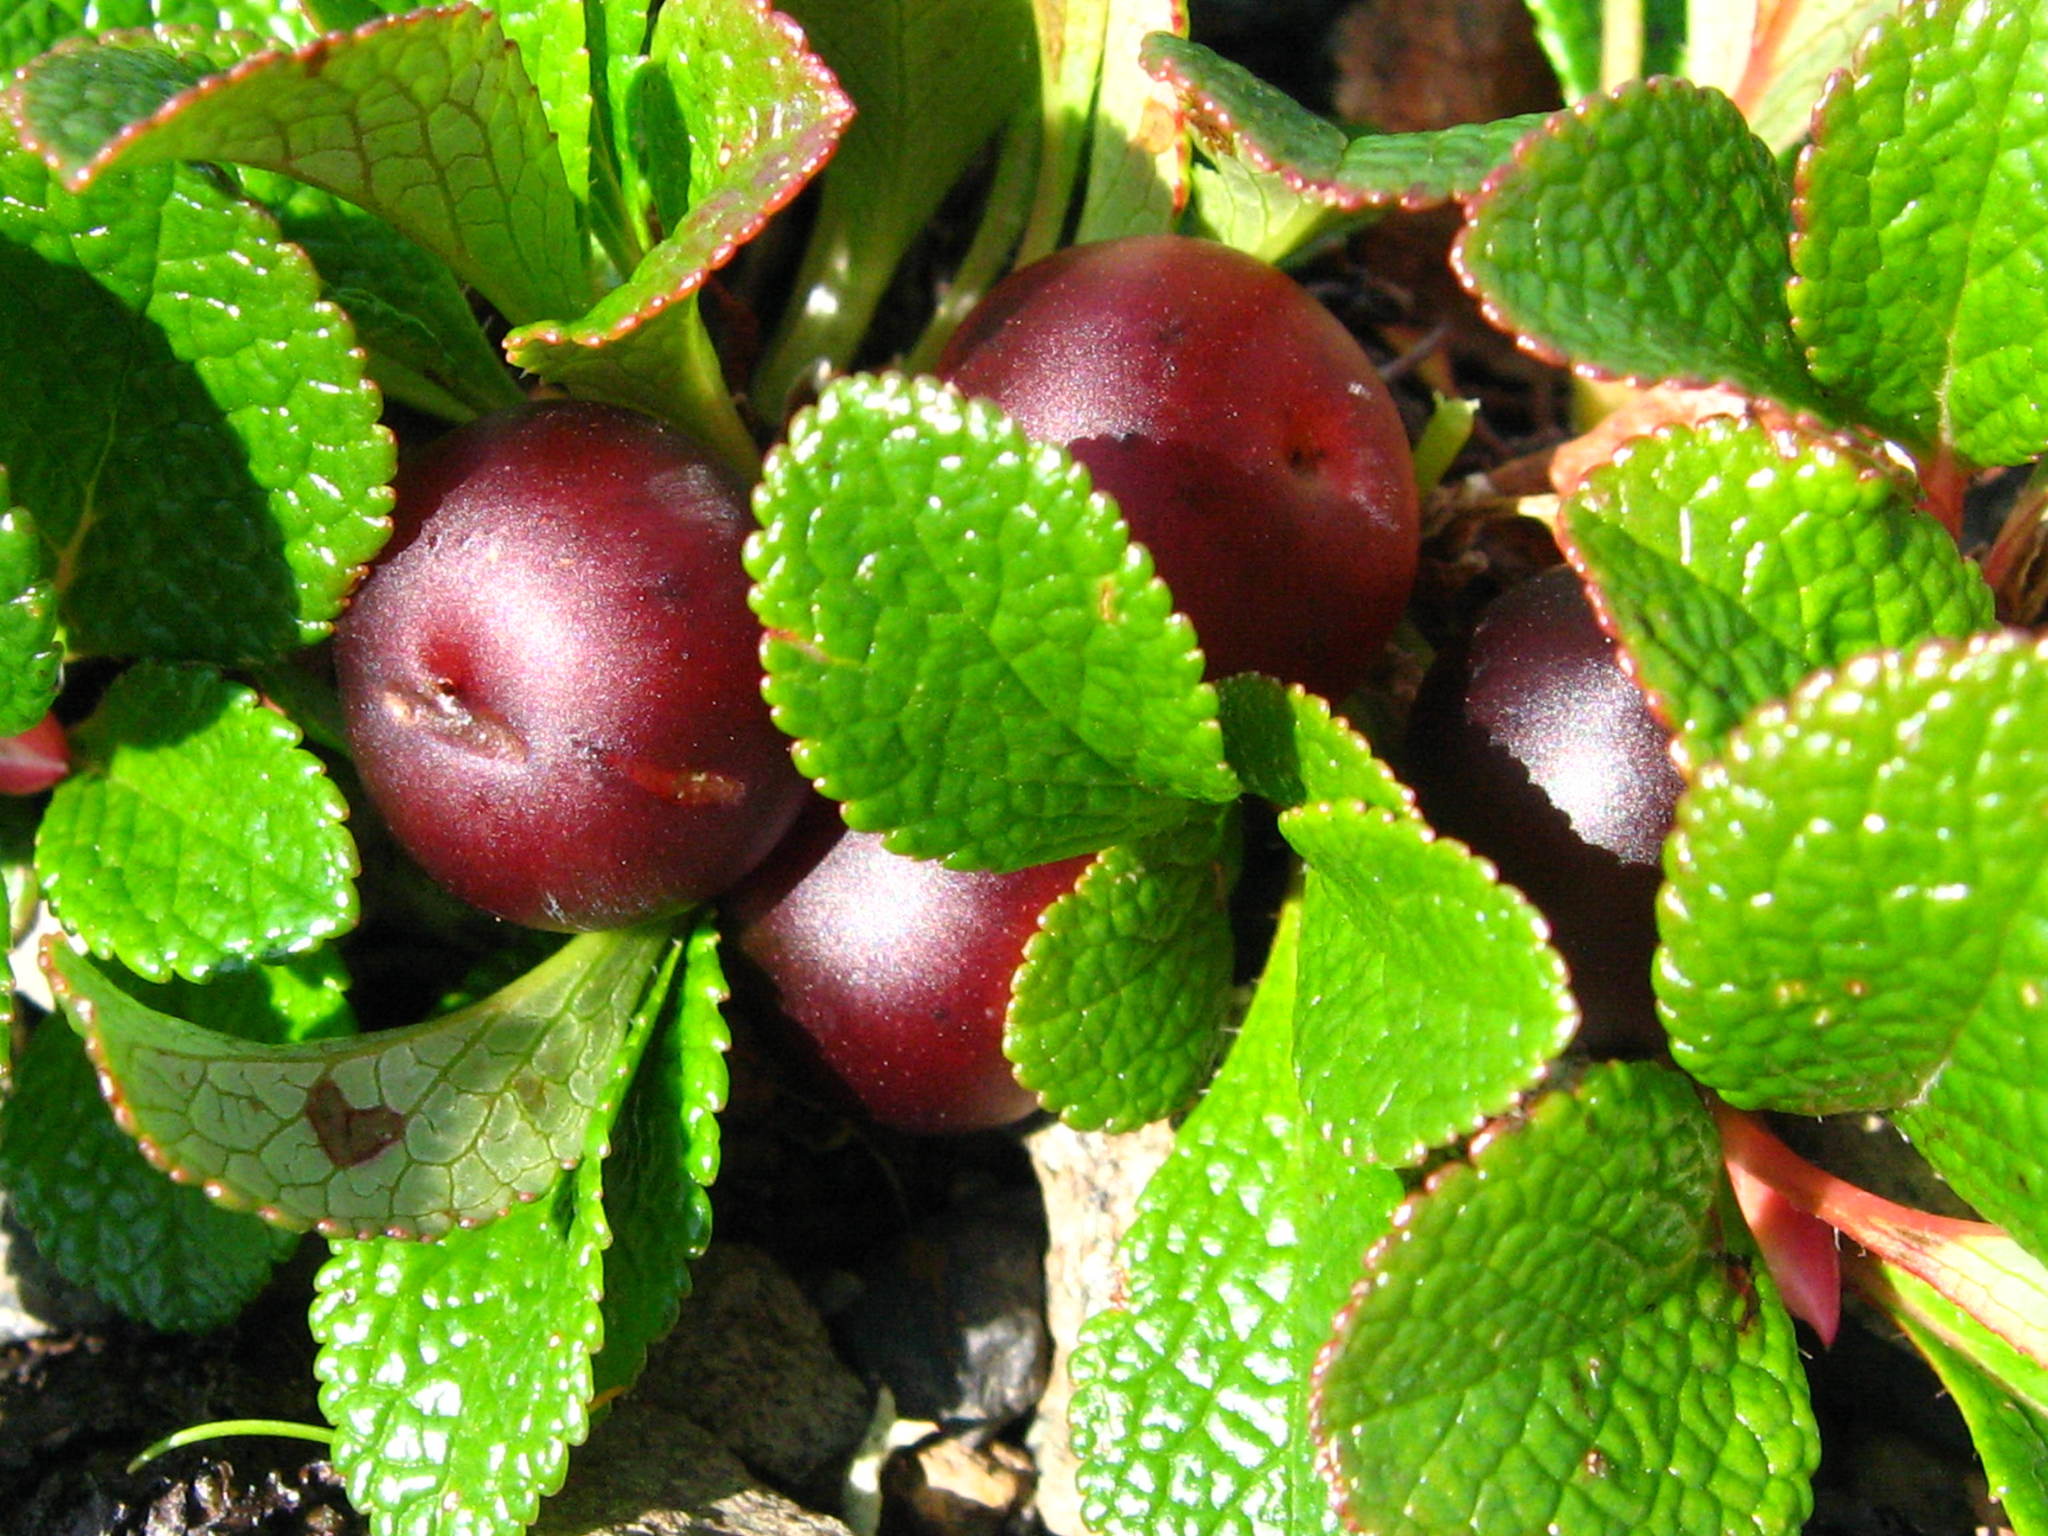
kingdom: Plantae
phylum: Tracheophyta
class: Magnoliopsida
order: Ericales
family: Ericaceae
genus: Arctostaphylos
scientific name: Arctostaphylos alpinus
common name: Alpine bearberry
